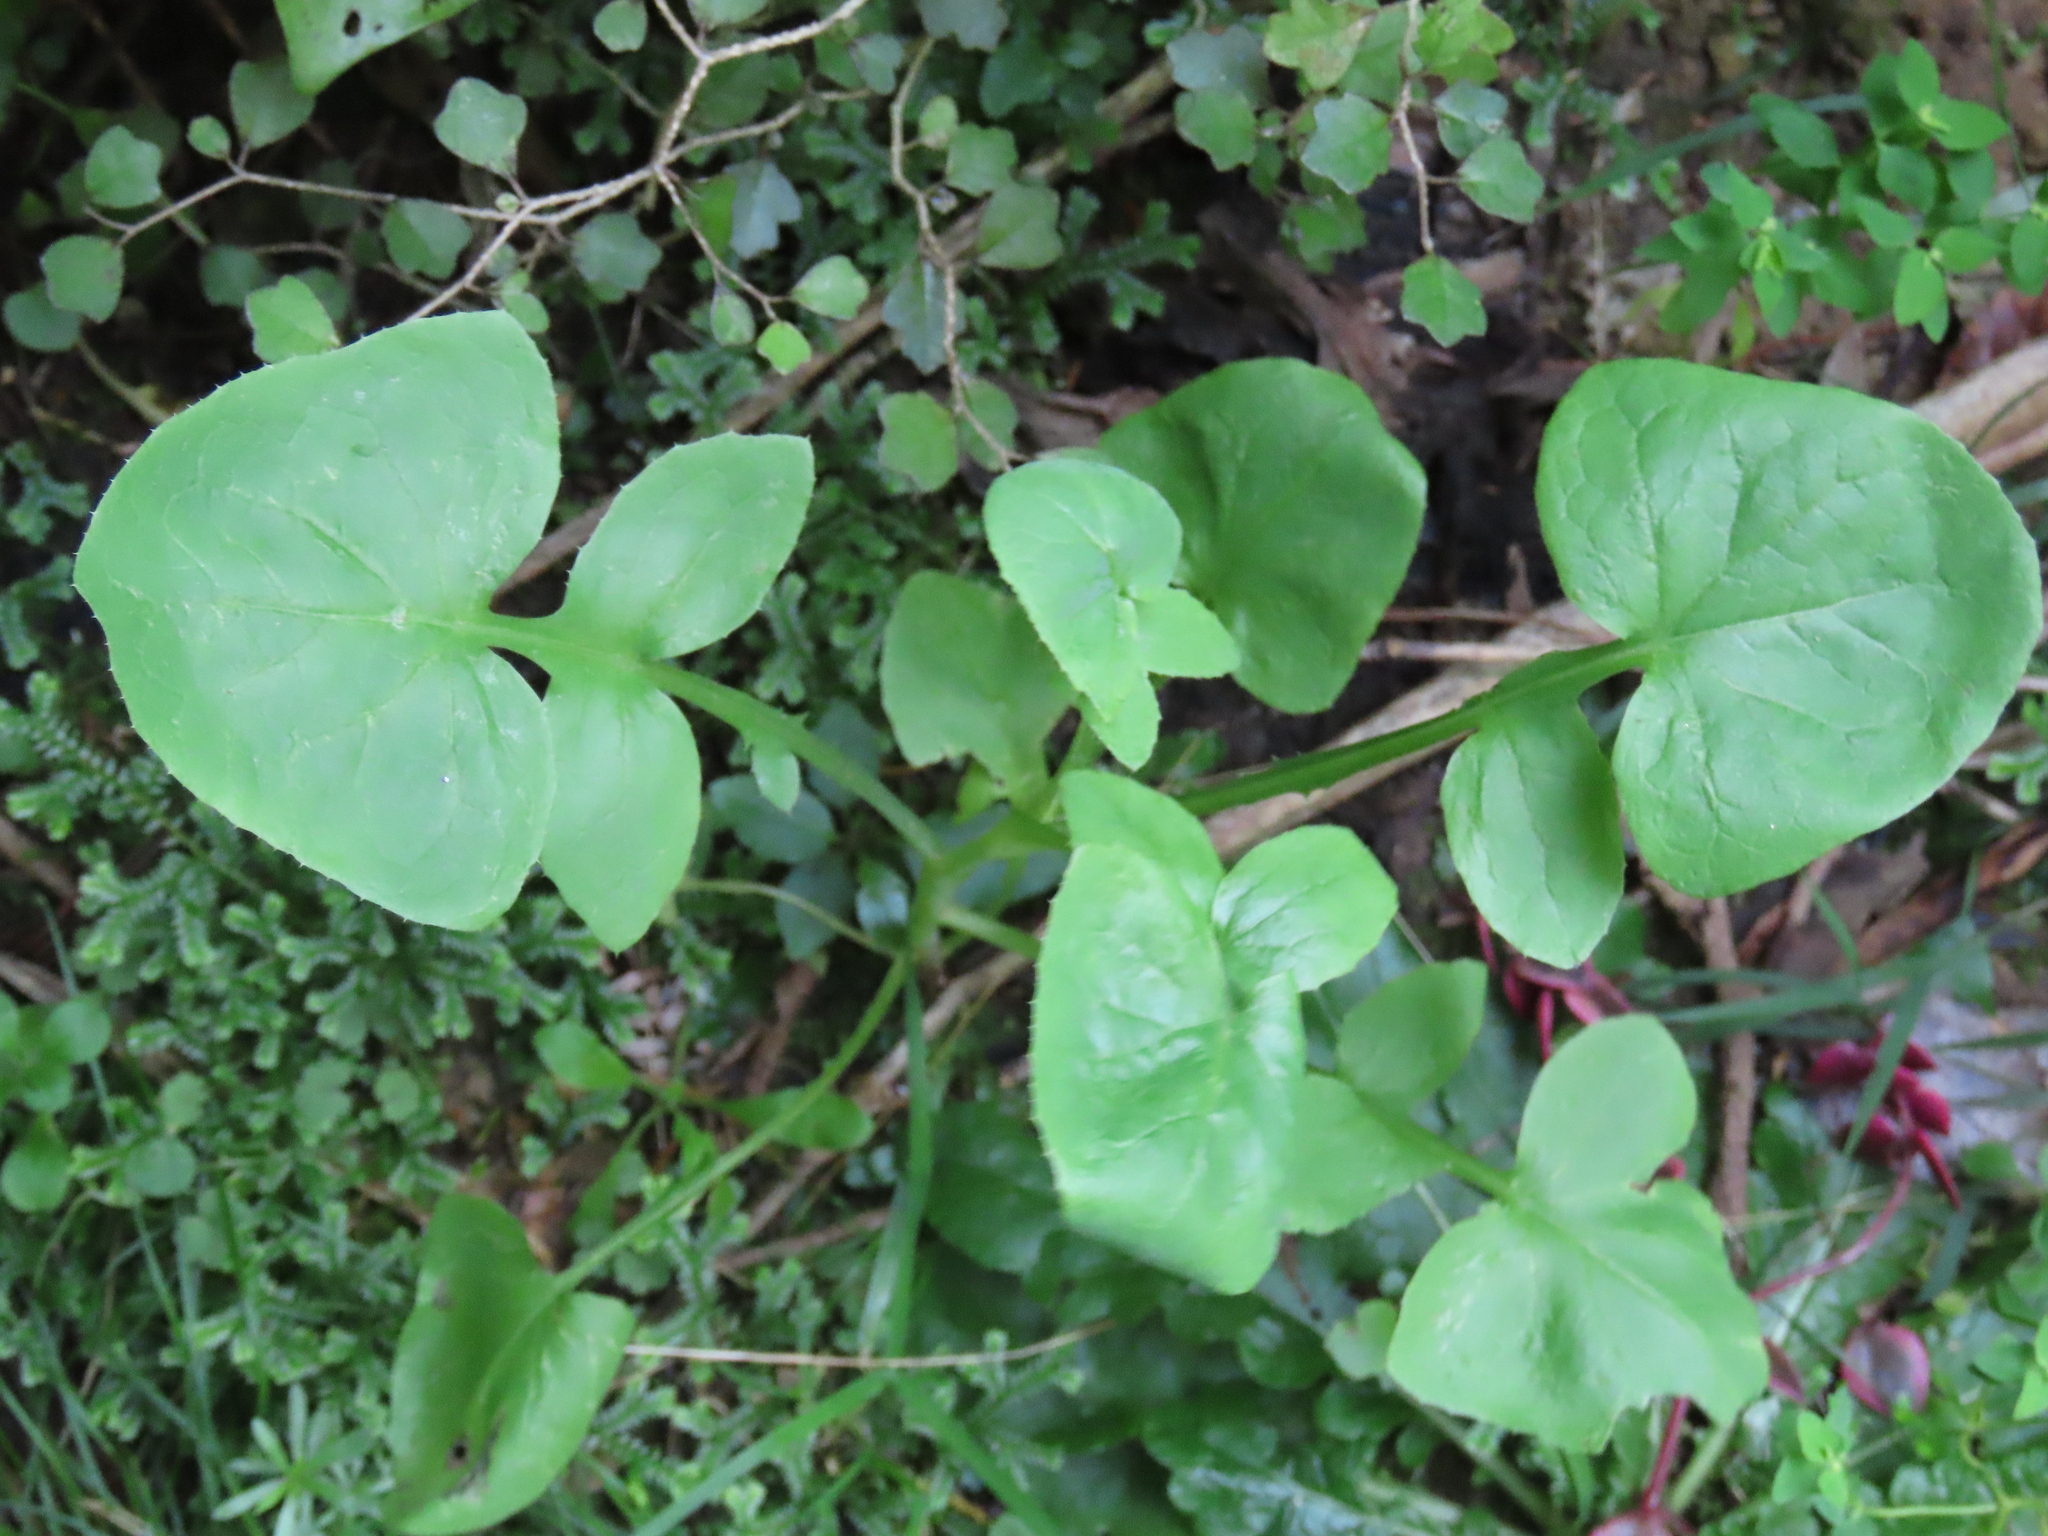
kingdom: Plantae
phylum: Tracheophyta
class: Magnoliopsida
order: Asterales
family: Asteraceae
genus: Sonchus
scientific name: Sonchus oleraceus
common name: Common sowthistle
